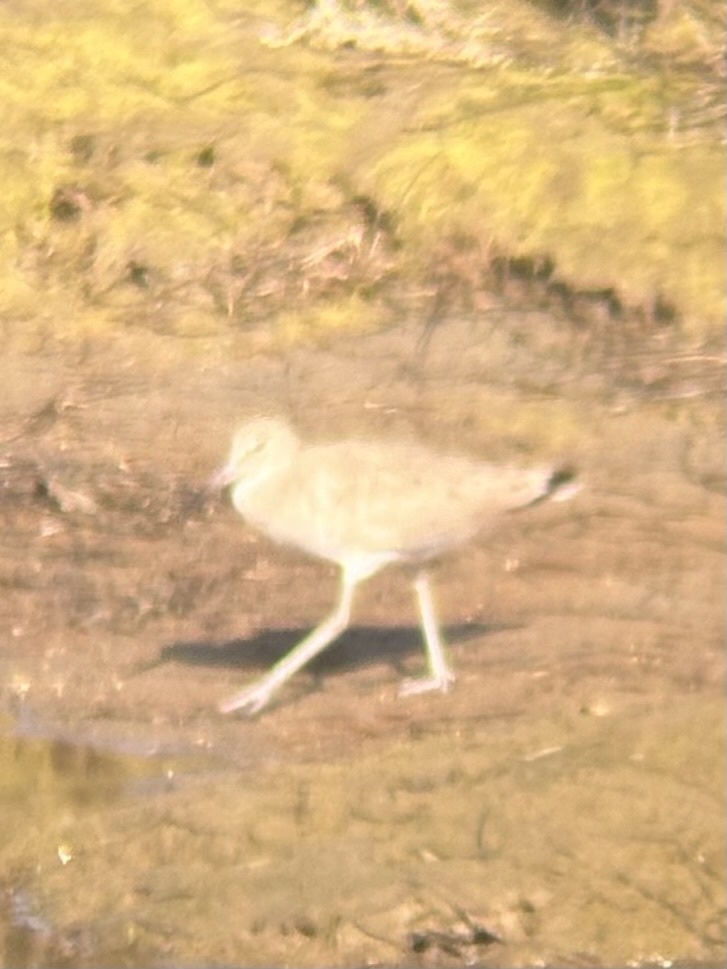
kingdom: Animalia
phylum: Chordata
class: Aves
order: Charadriiformes
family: Scolopacidae
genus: Tringa
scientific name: Tringa semipalmata
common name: Willet
